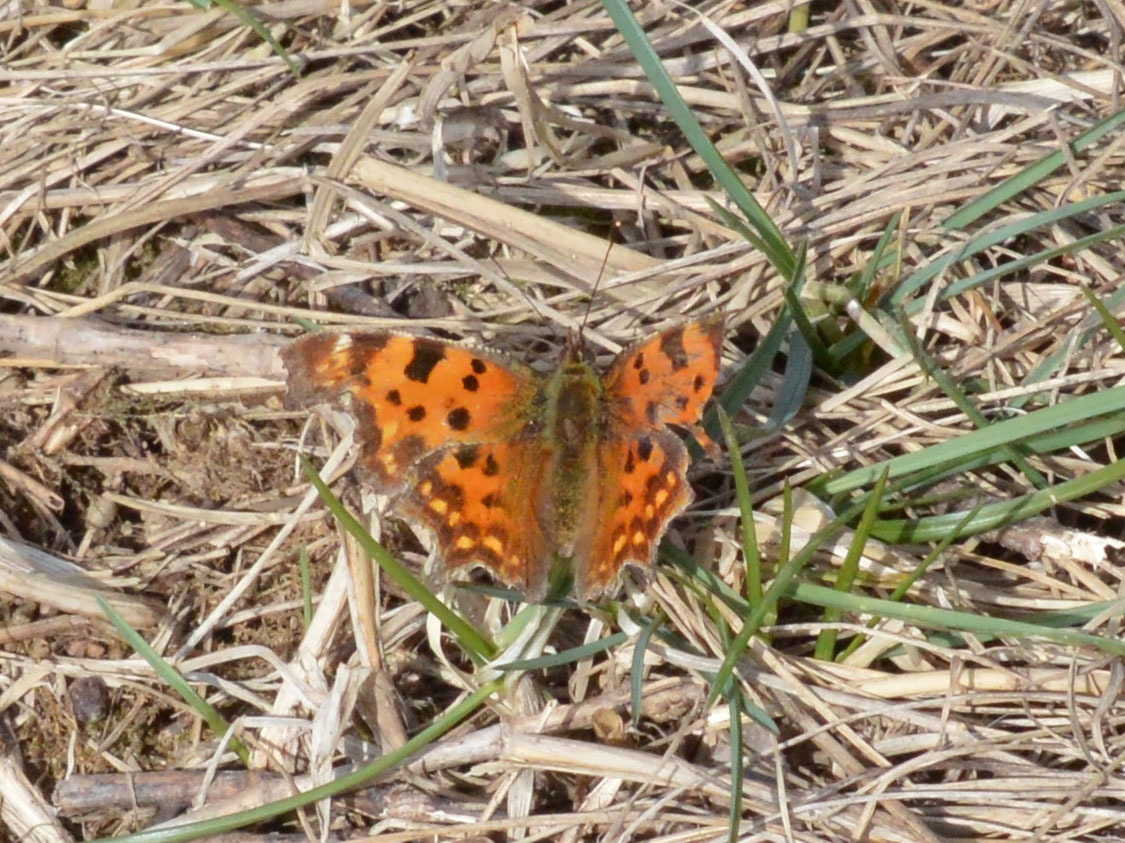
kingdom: Animalia
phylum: Arthropoda
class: Insecta
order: Lepidoptera
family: Nymphalidae
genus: Polygonia
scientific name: Polygonia c-album
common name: Comma
